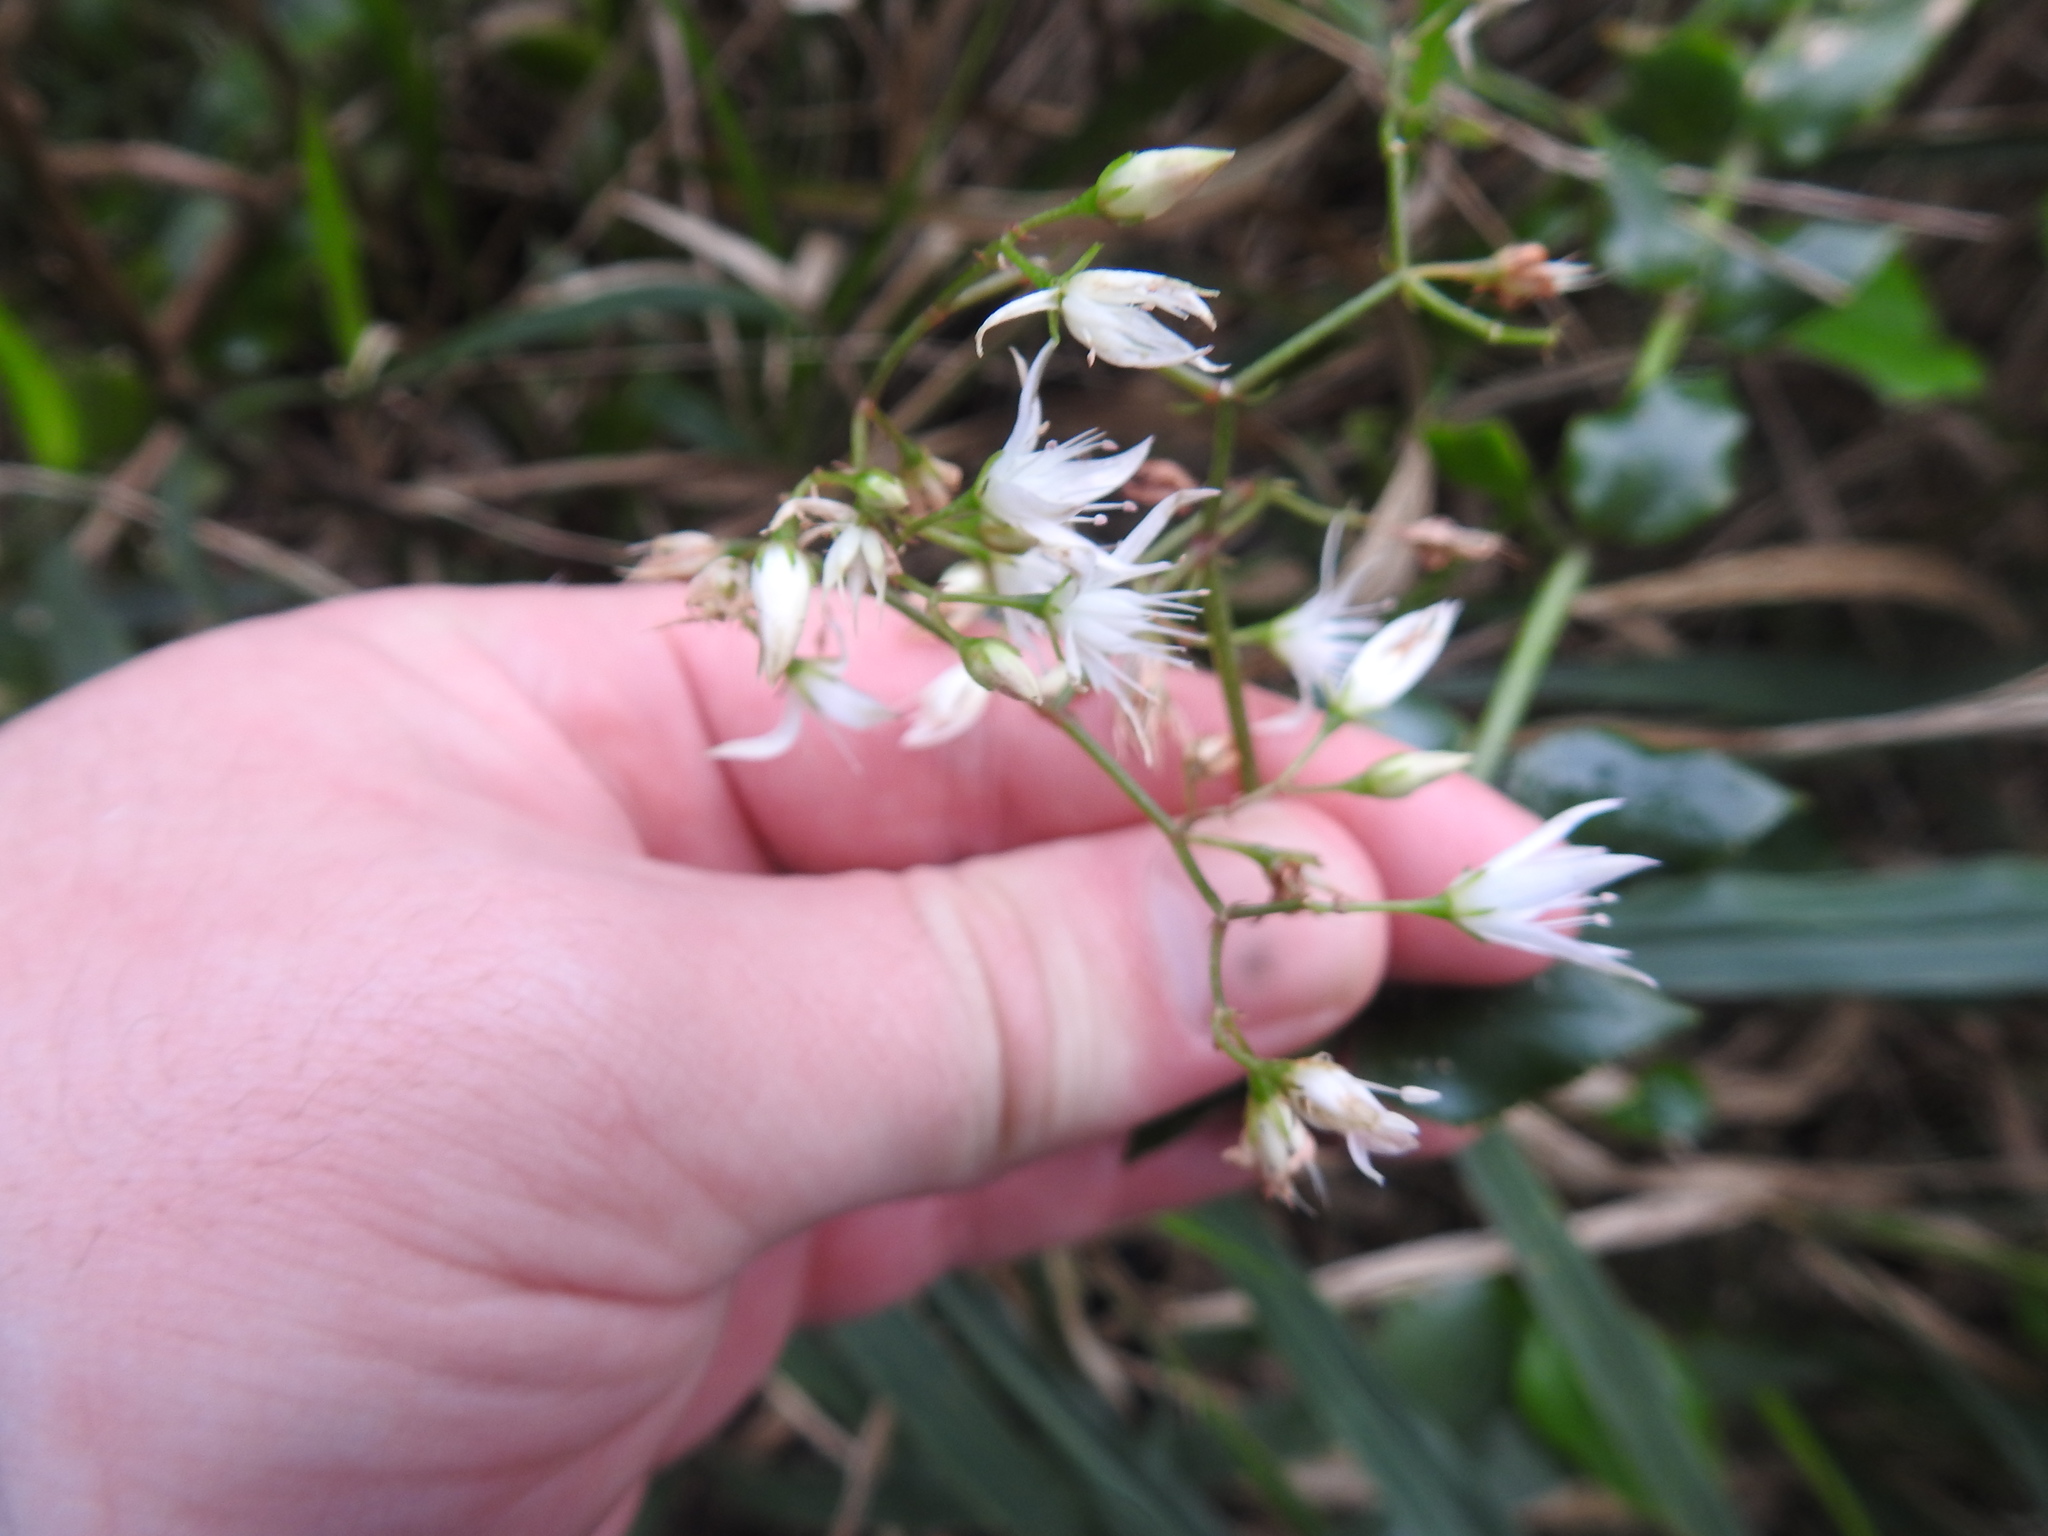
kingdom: Plantae
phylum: Tracheophyta
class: Magnoliopsida
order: Saxifragales
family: Crassulaceae
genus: Crassula
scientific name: Crassula sarmentosa
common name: Jade-tree
